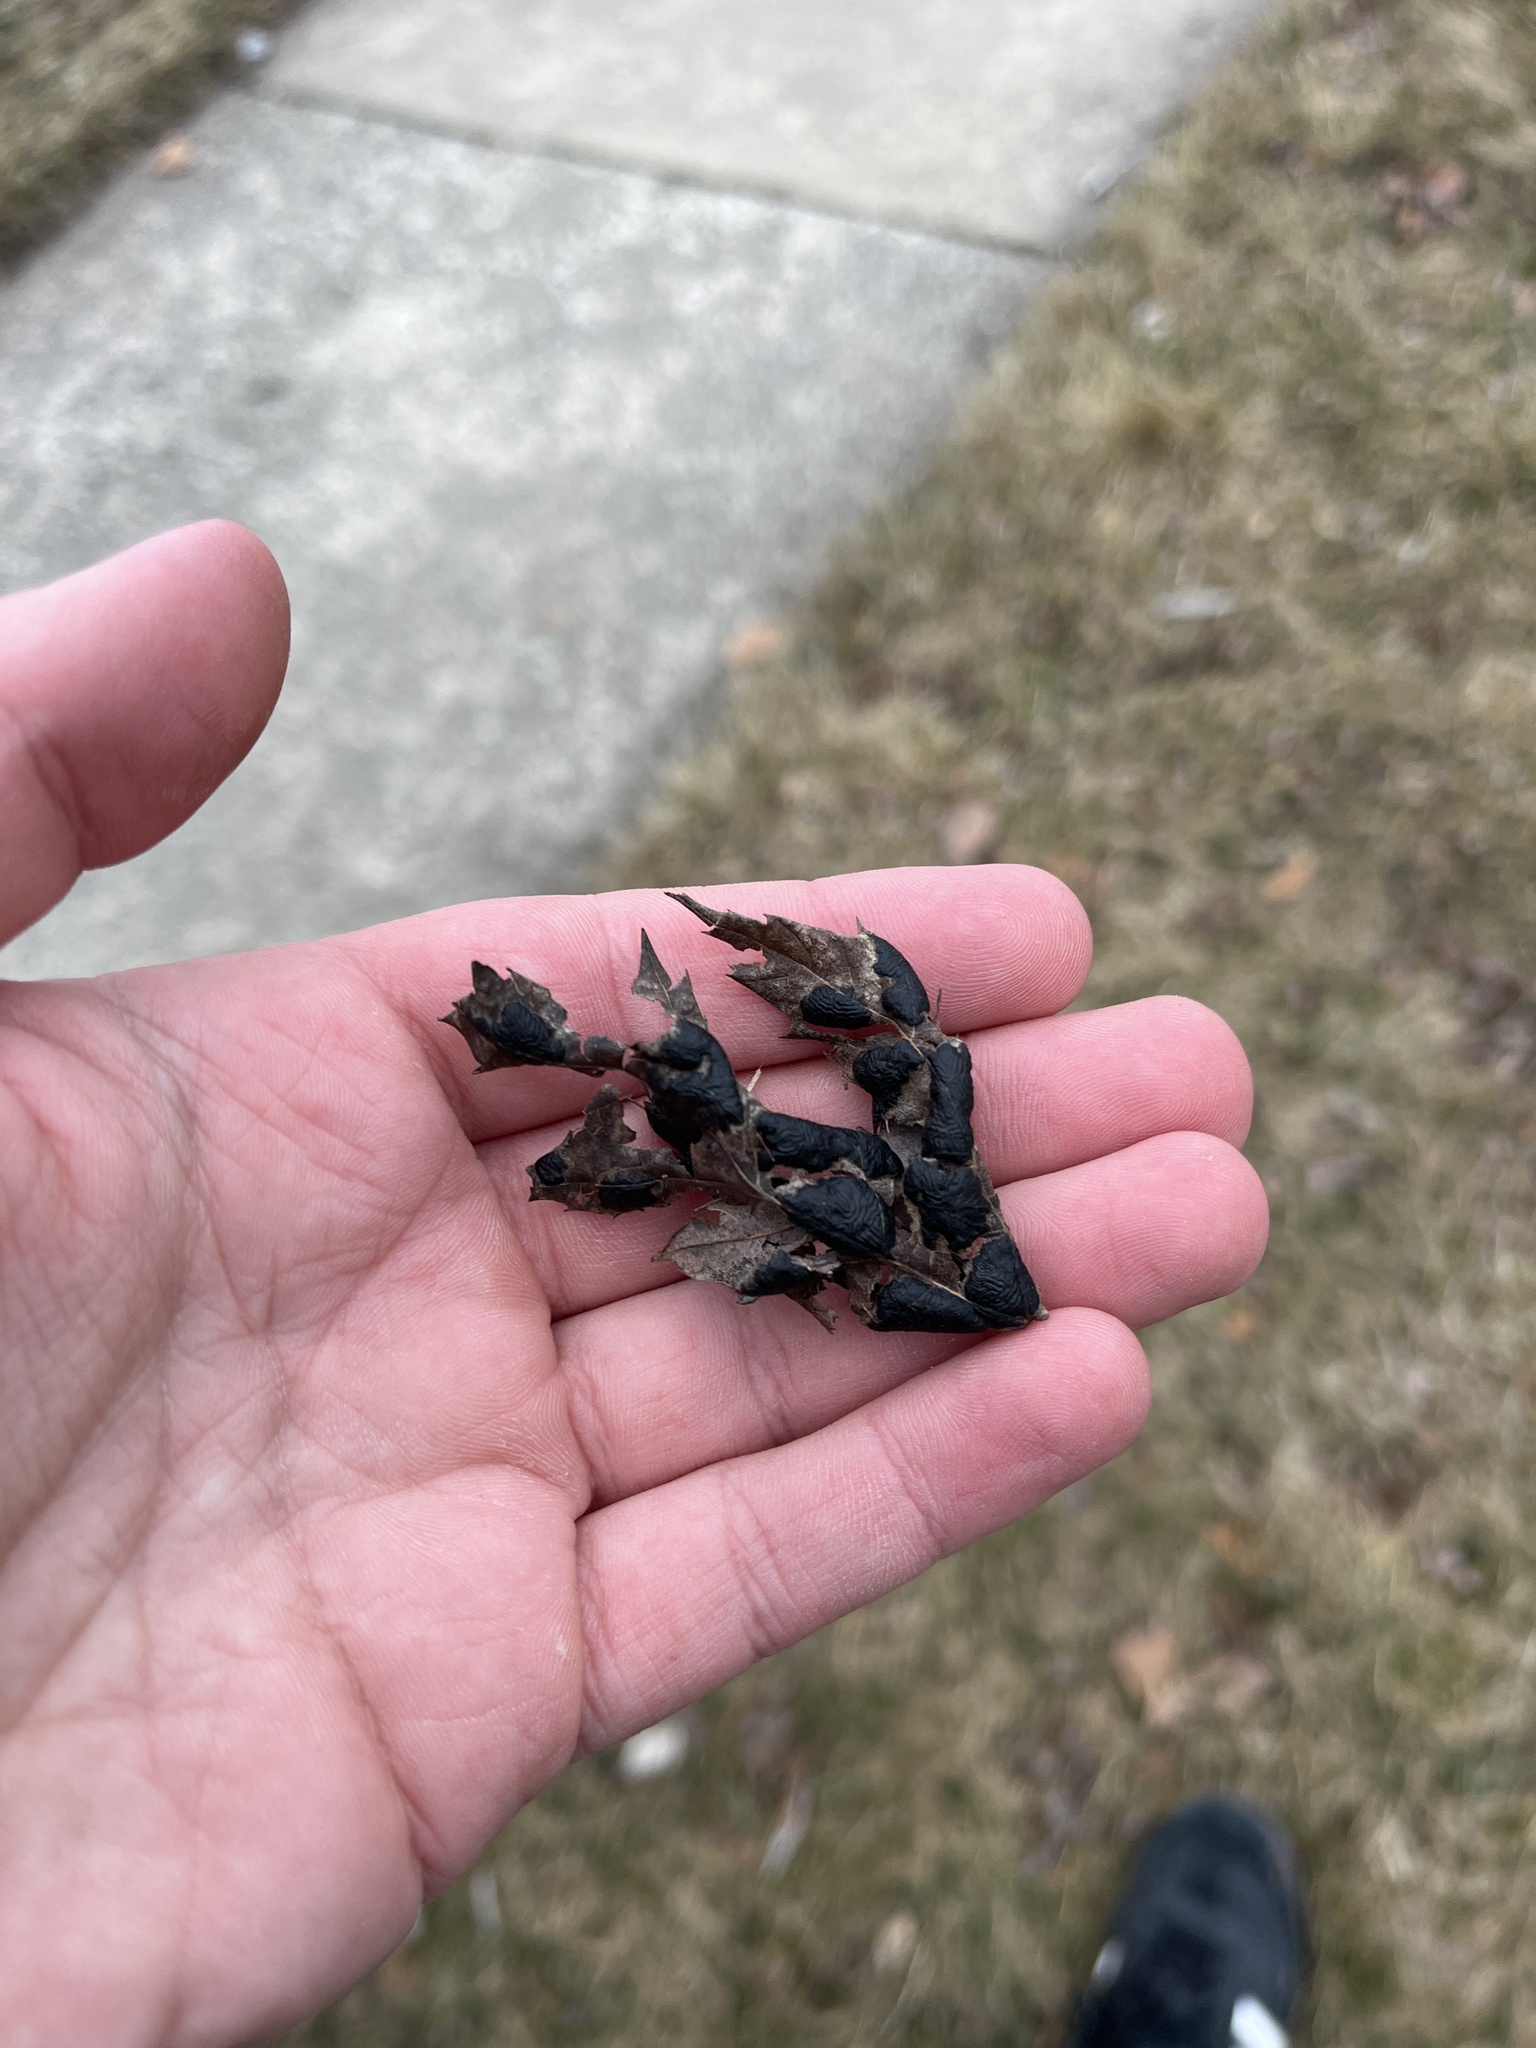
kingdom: Fungi
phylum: Ascomycota
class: Leotiomycetes
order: Rhytismatales
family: Rhytismataceae
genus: Rhytisma
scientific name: Rhytisma americanum
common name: American tar spot
